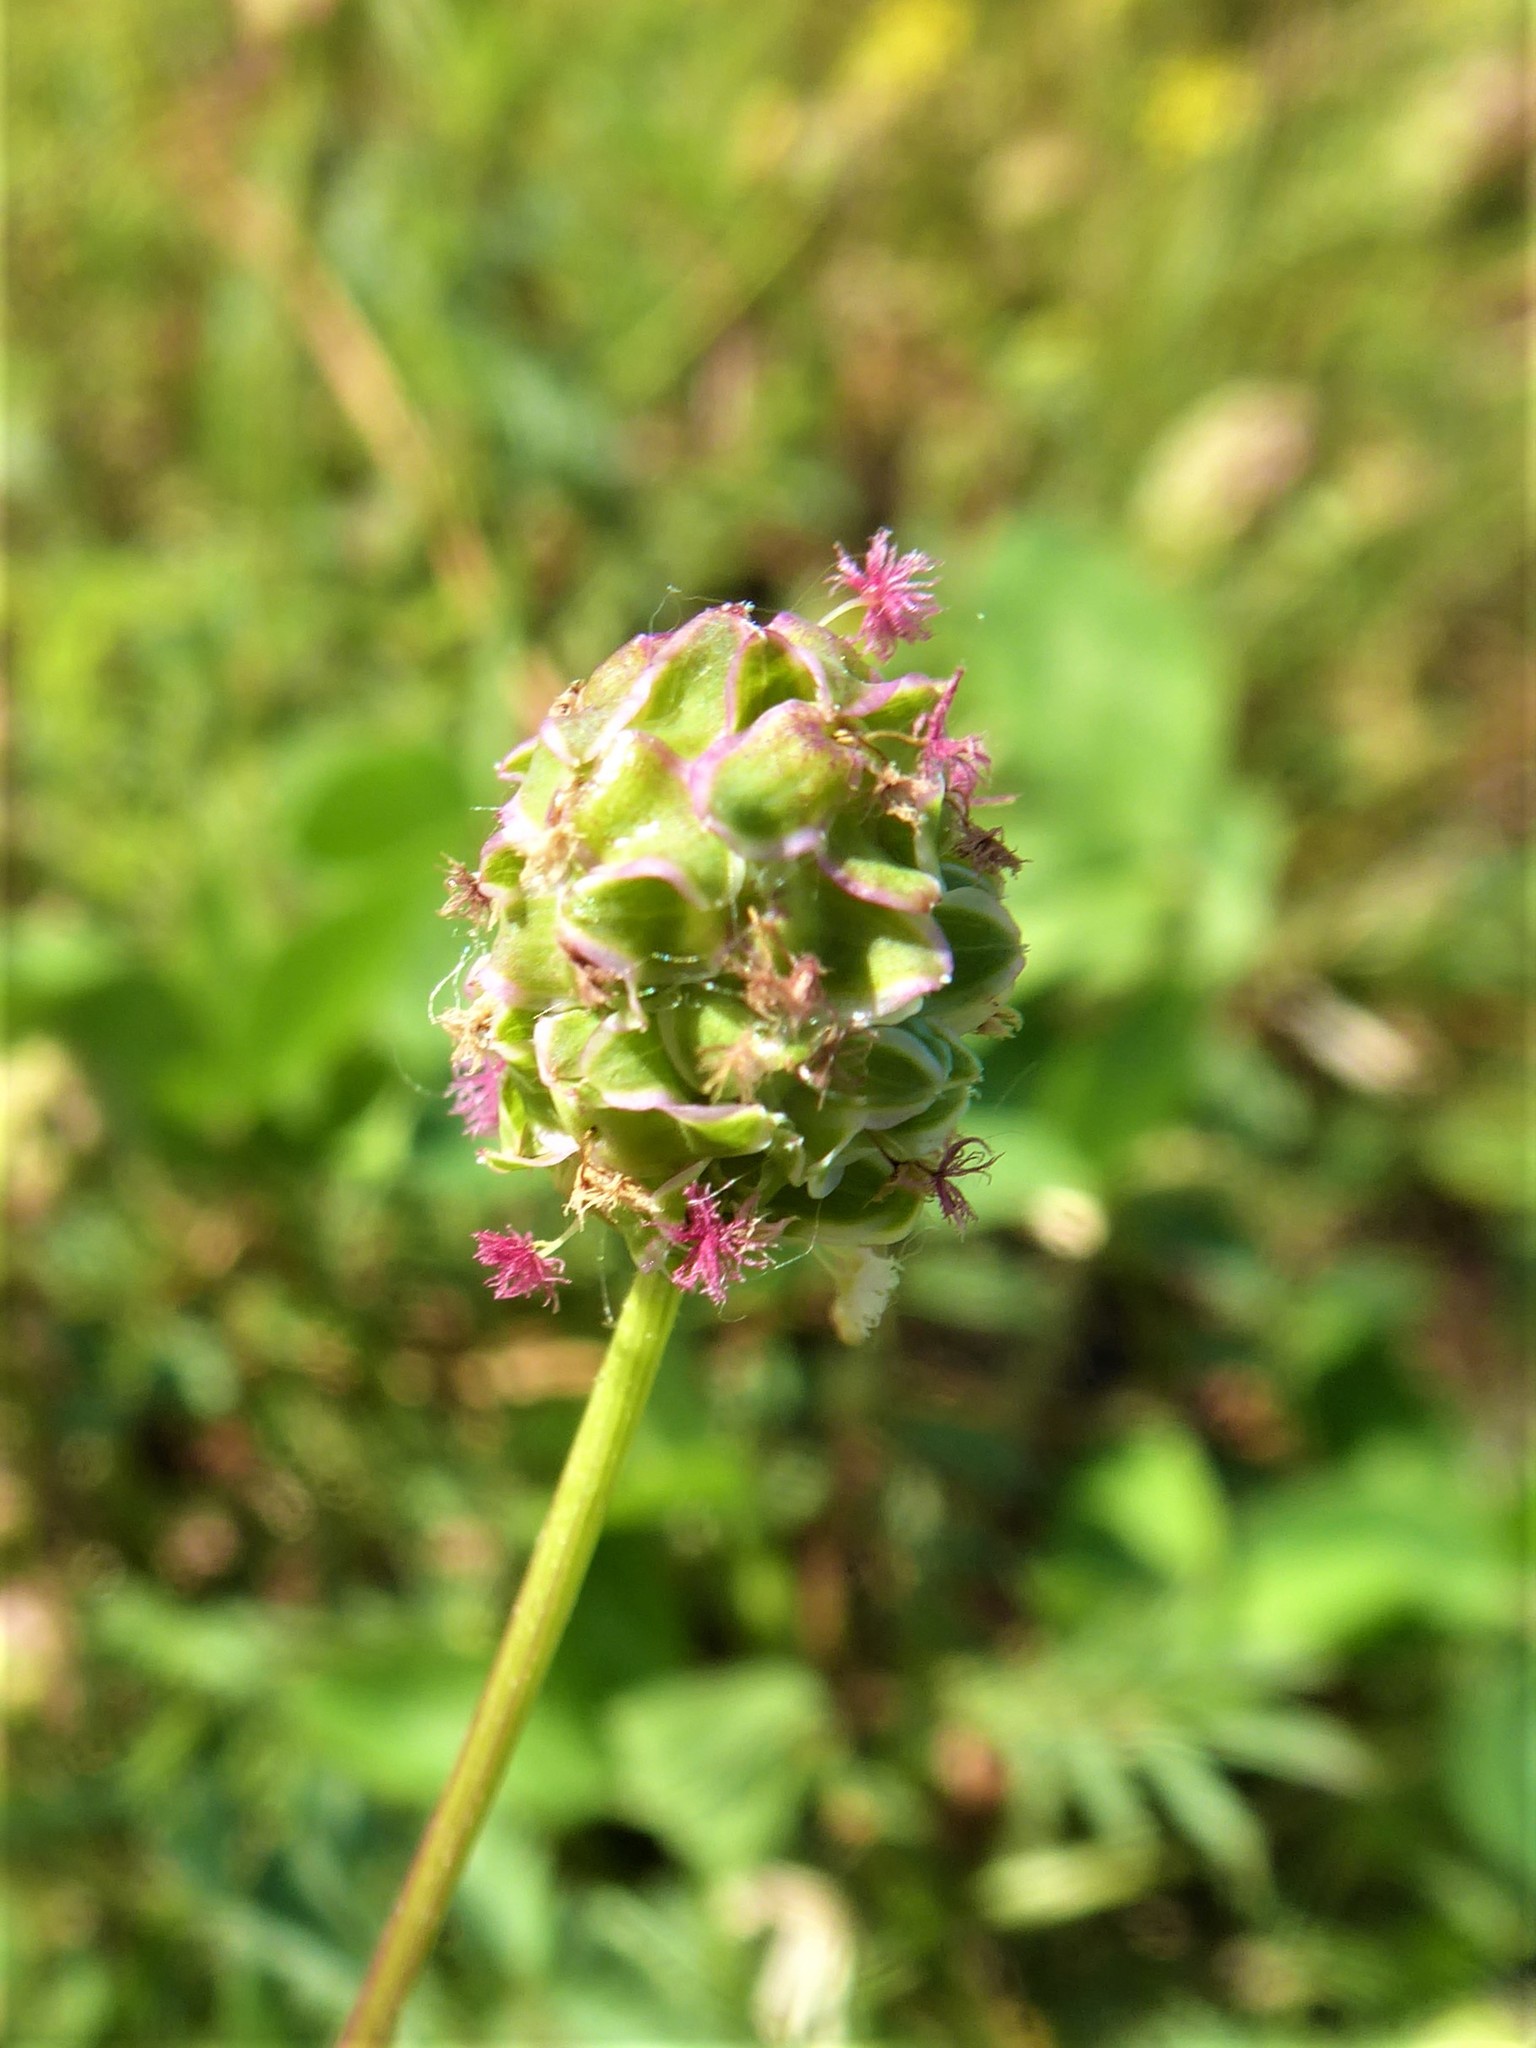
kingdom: Plantae
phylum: Tracheophyta
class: Magnoliopsida
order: Rosales
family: Rosaceae
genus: Poterium
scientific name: Poterium sanguisorba
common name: Salad burnet
